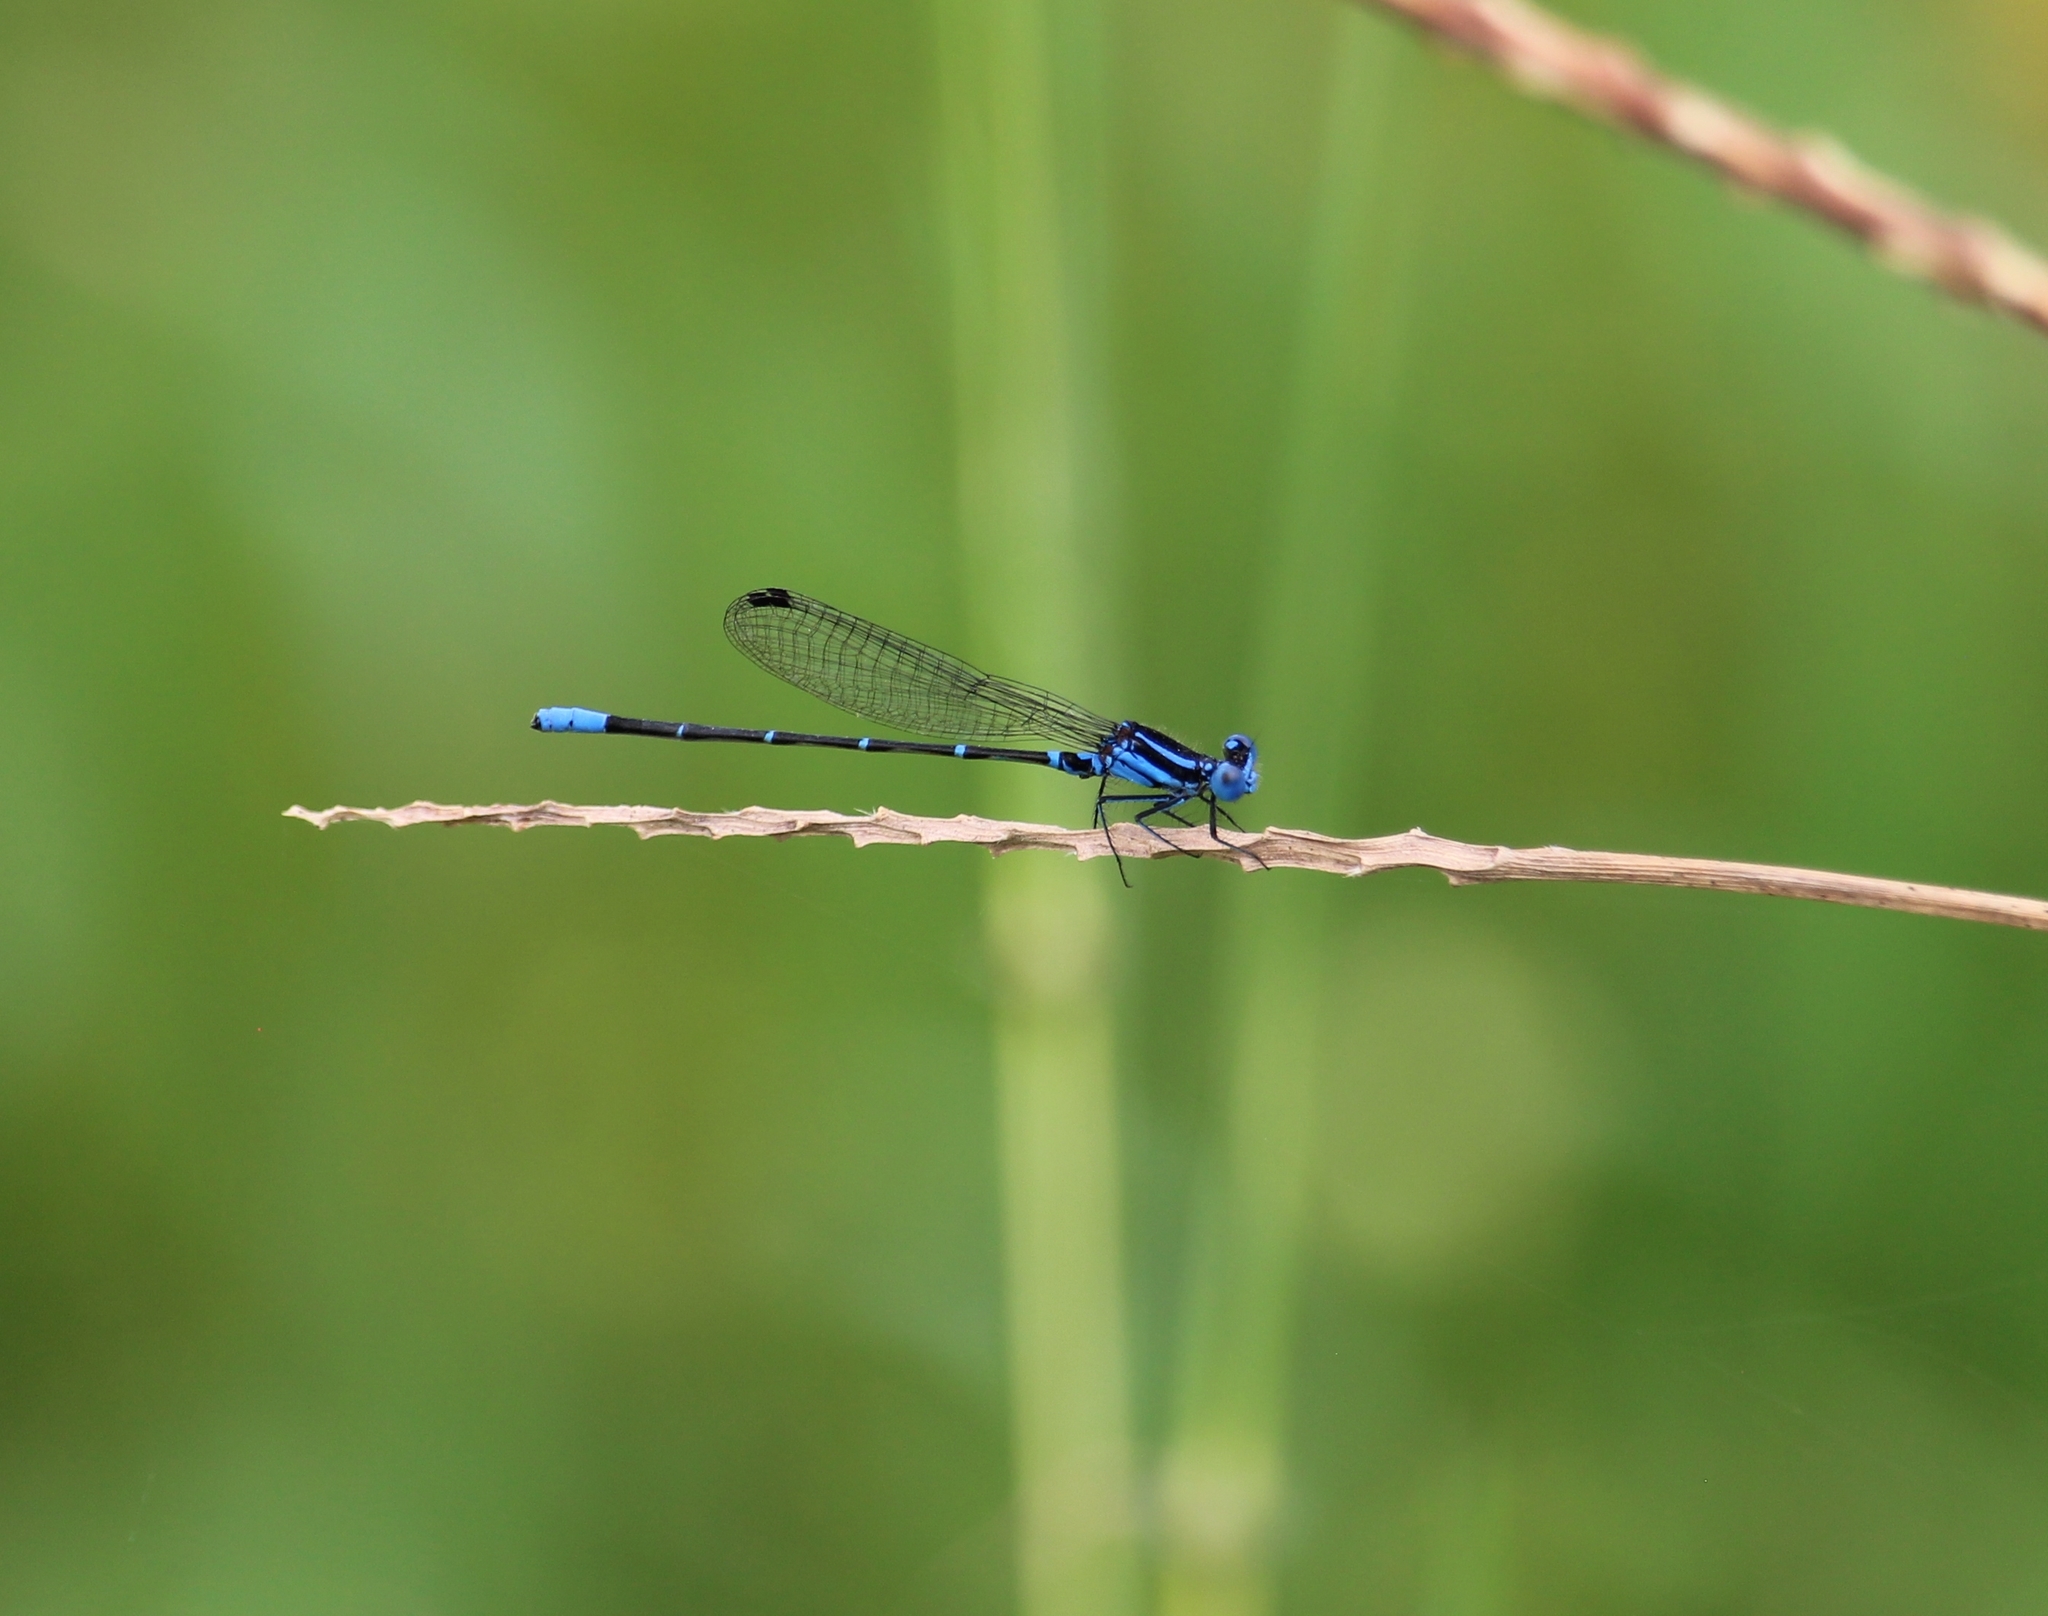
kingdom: Animalia
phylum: Arthropoda
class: Insecta
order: Odonata
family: Coenagrionidae
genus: Argia
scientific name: Argia gaumeri
